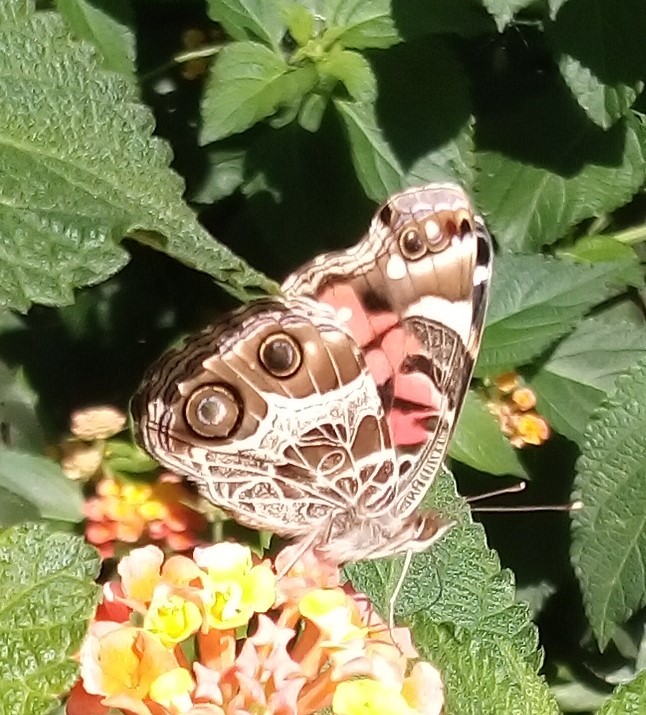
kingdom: Animalia
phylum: Arthropoda
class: Insecta
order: Lepidoptera
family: Nymphalidae
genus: Vanessa
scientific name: Vanessa virginiensis
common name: American lady
